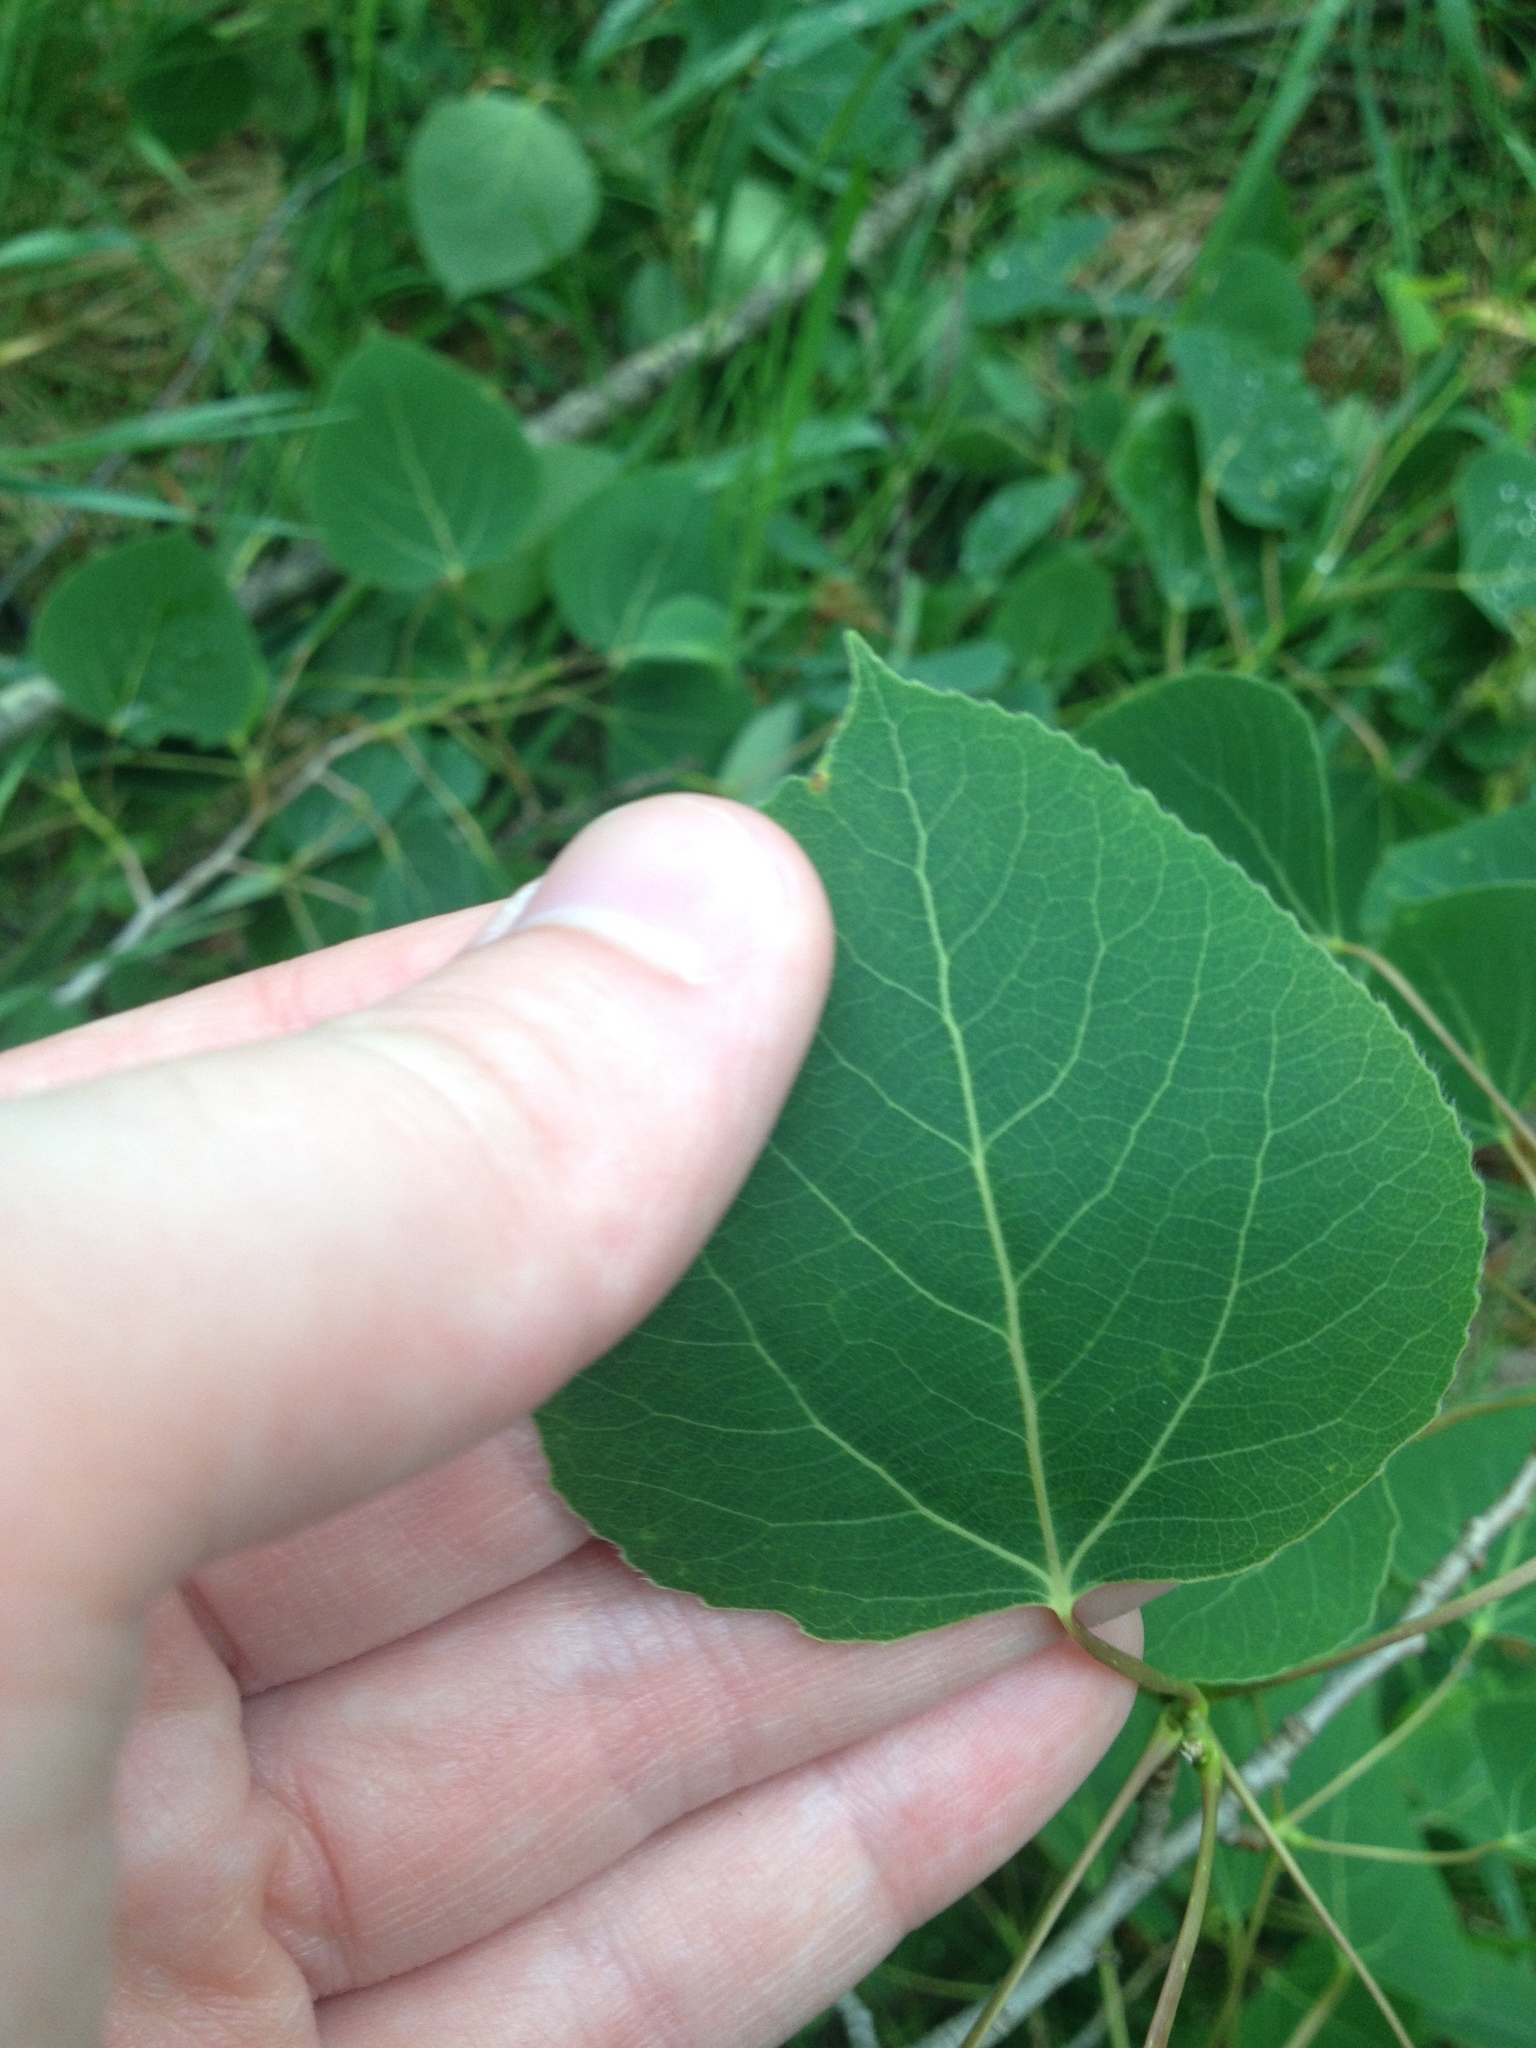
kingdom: Plantae
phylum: Tracheophyta
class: Magnoliopsida
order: Malpighiales
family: Salicaceae
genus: Populus
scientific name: Populus tremuloides
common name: Quaking aspen
